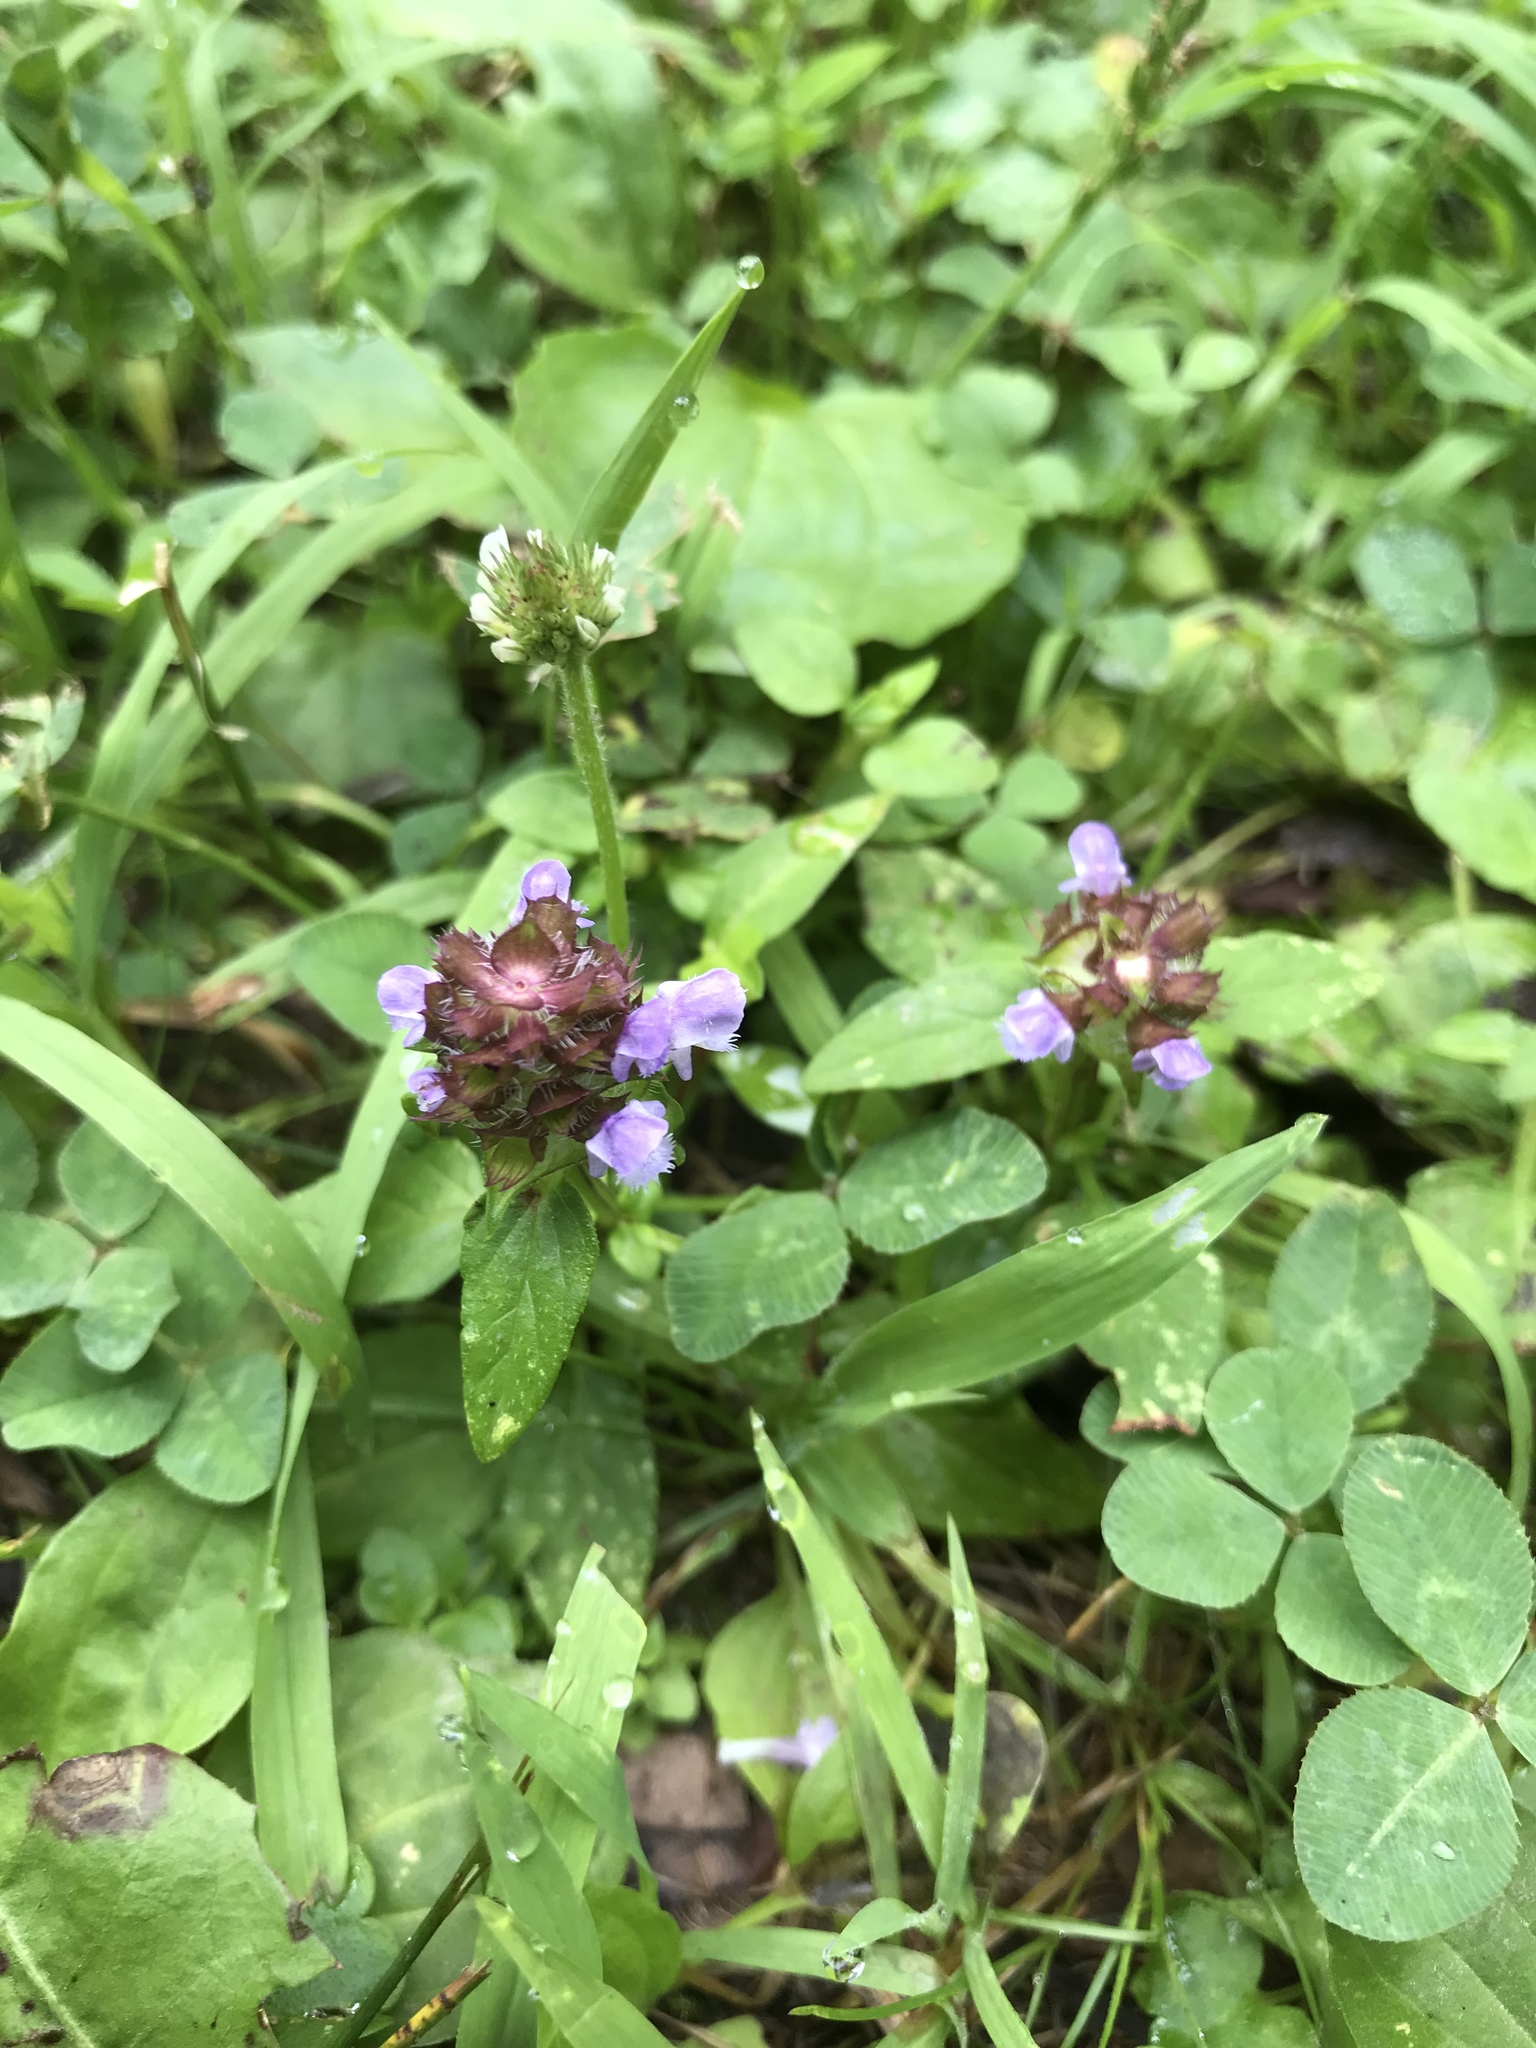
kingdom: Plantae
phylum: Tracheophyta
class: Magnoliopsida
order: Lamiales
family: Lamiaceae
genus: Prunella
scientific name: Prunella vulgaris
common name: Heal-all
